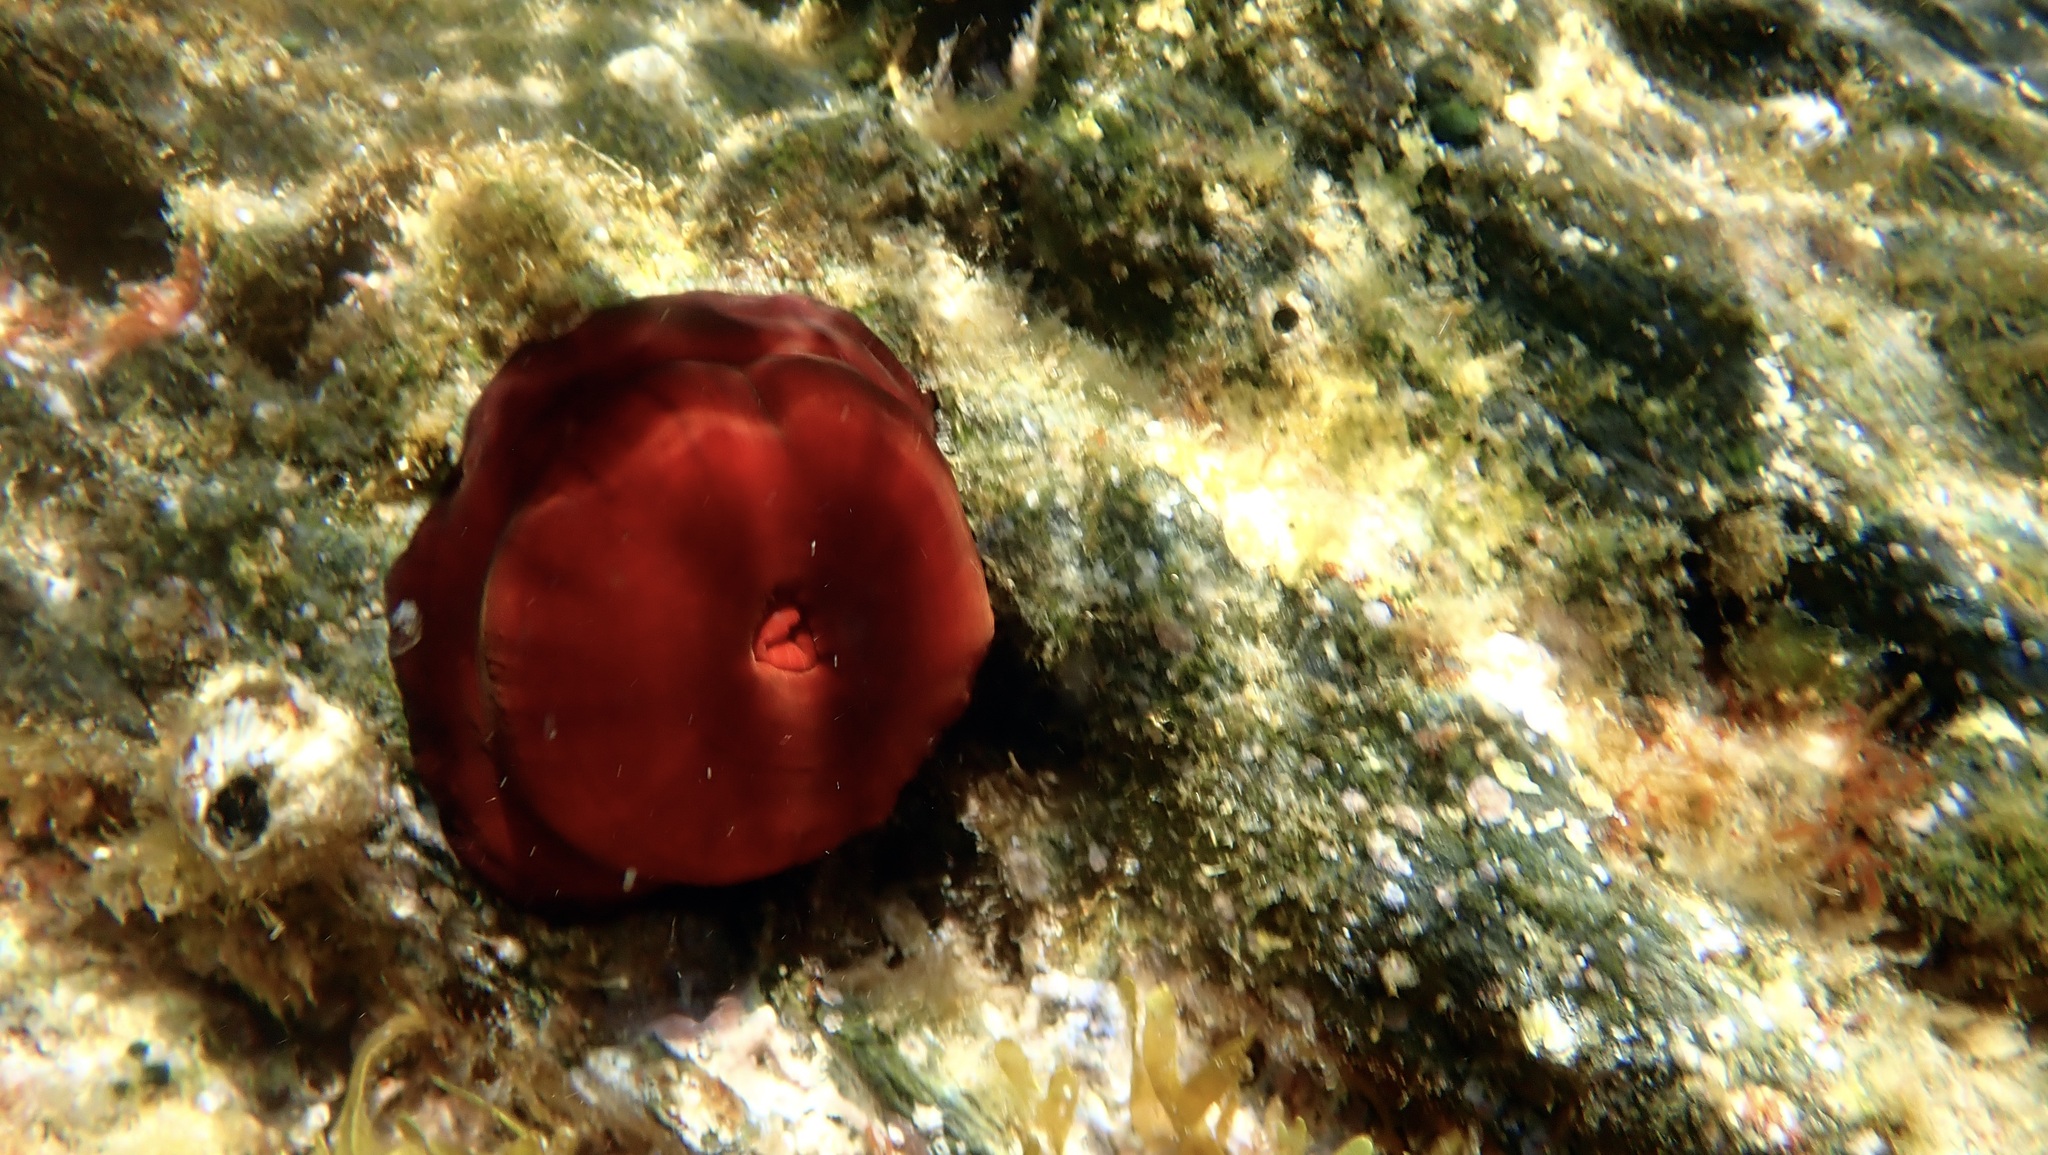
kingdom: Animalia
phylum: Cnidaria
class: Anthozoa
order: Actiniaria
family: Actiniidae
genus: Actinia
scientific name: Actinia mediterranea
